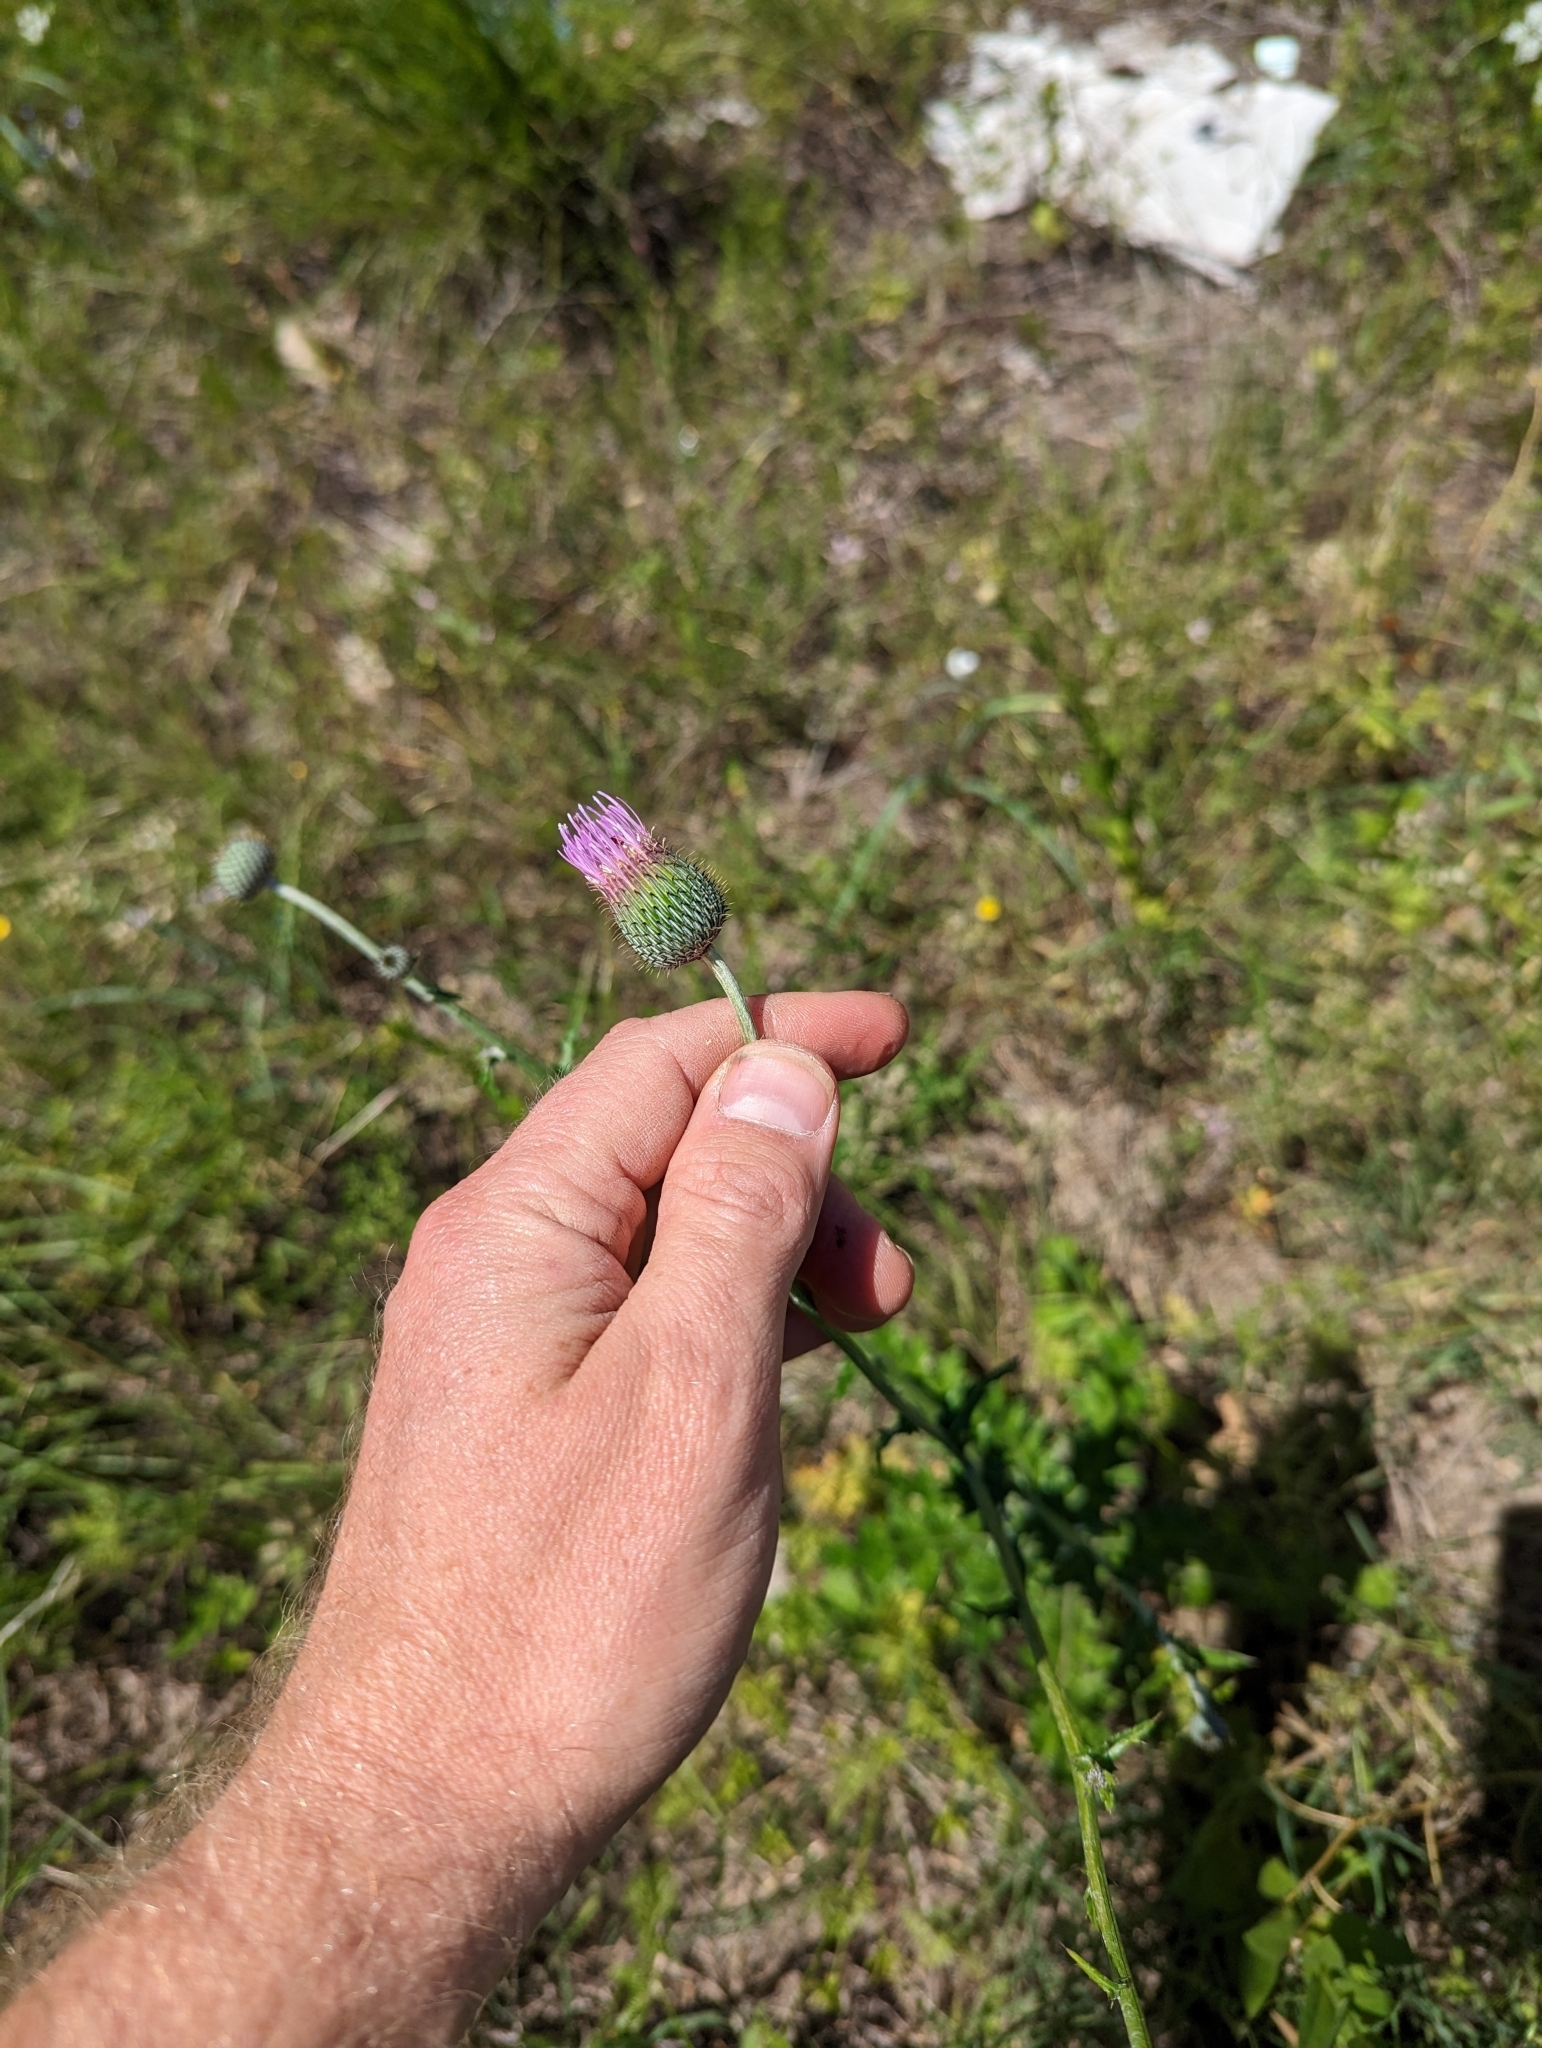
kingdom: Plantae
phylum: Tracheophyta
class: Magnoliopsida
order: Asterales
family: Asteraceae
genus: Cirsium
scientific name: Cirsium texanum
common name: Texas purple thistle
